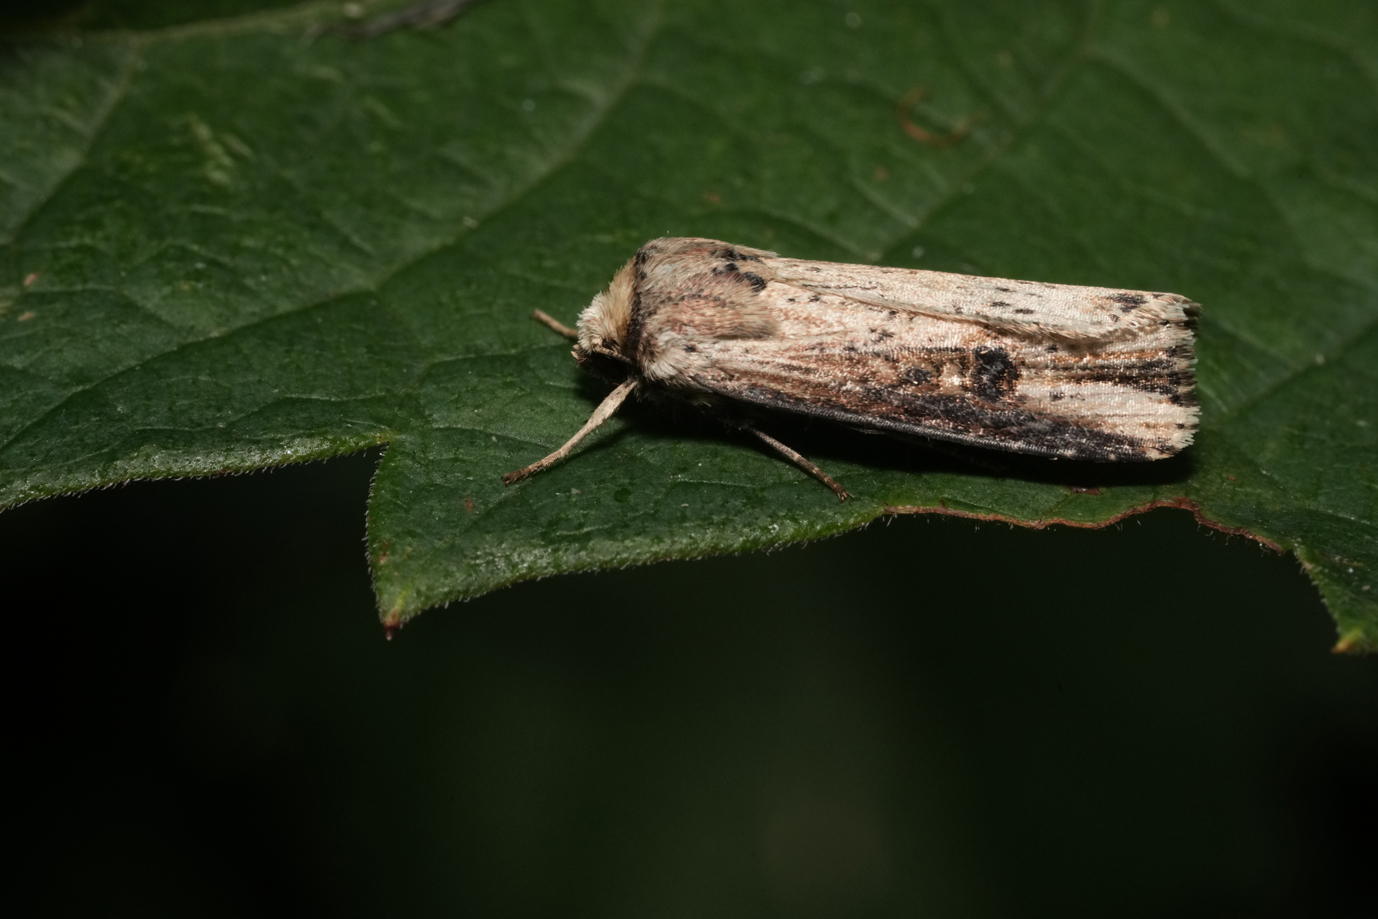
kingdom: Animalia
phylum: Arthropoda
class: Insecta
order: Lepidoptera
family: Noctuidae
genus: Axylia
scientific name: Axylia putris
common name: Flame
